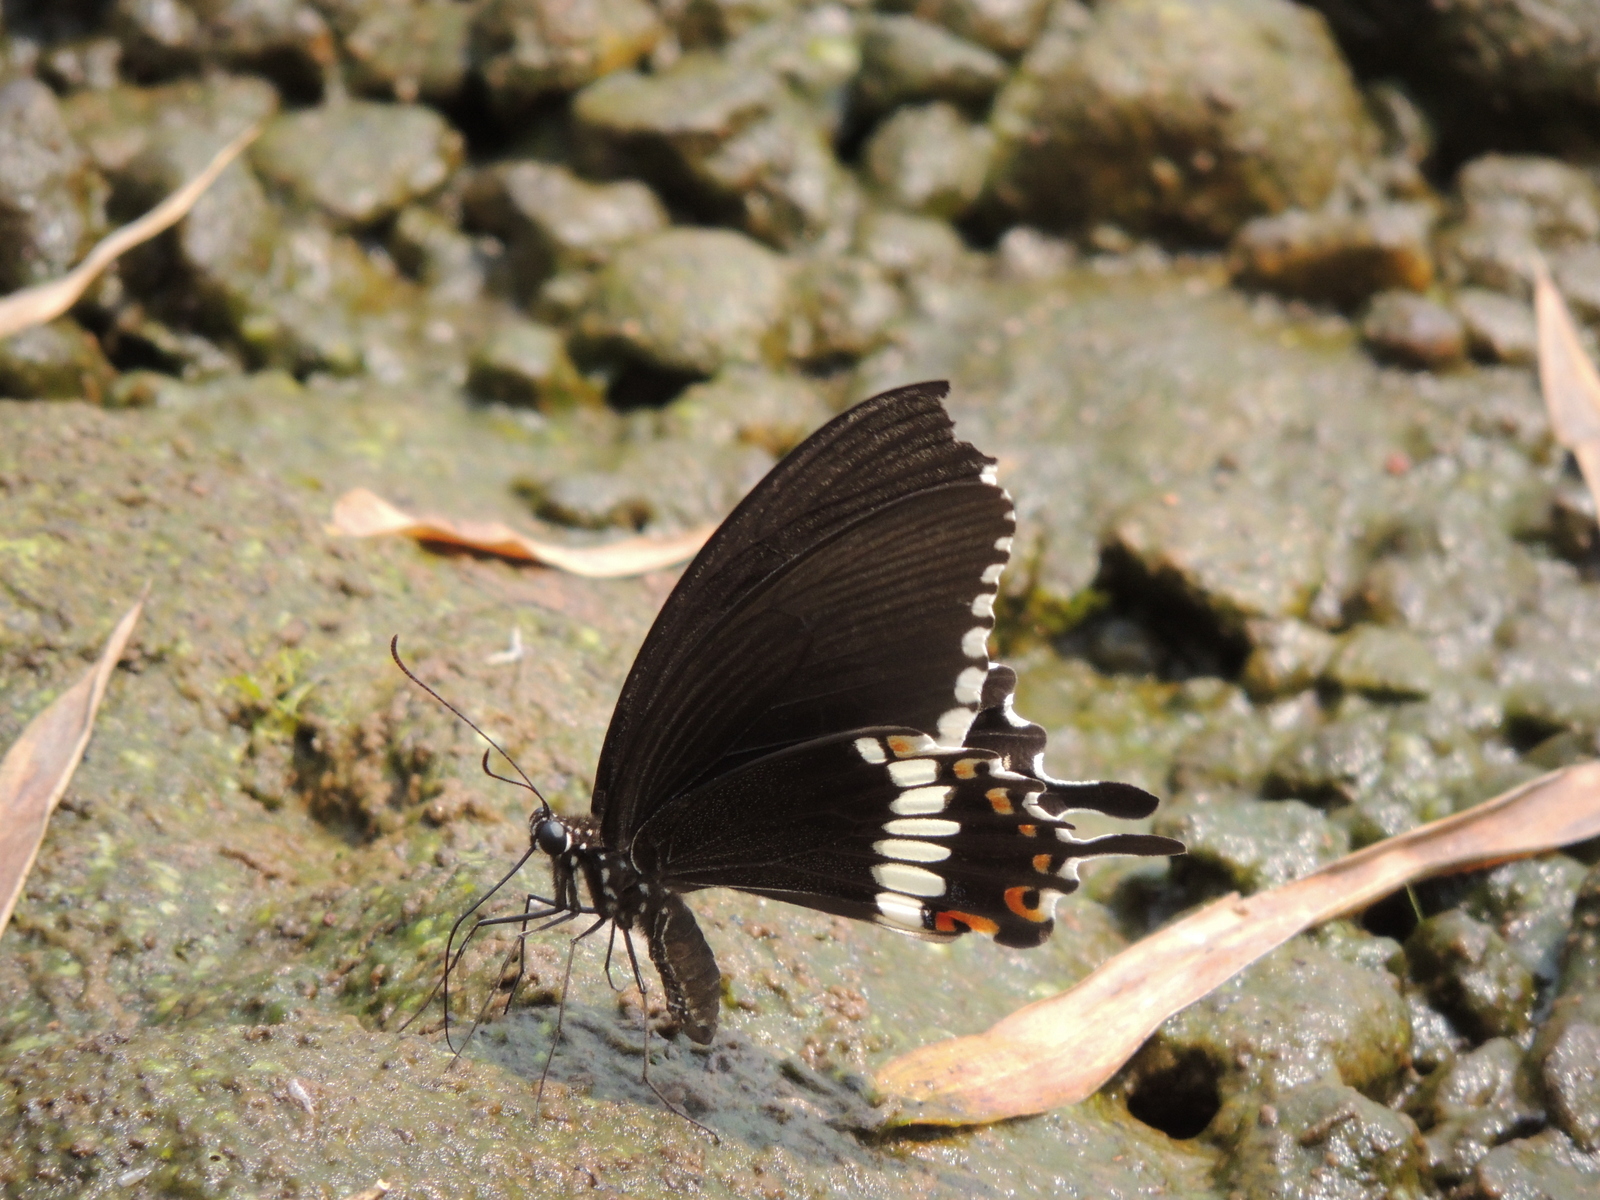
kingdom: Animalia
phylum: Arthropoda
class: Insecta
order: Lepidoptera
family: Papilionidae
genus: Papilio
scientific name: Papilio polytes
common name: Common mormon
